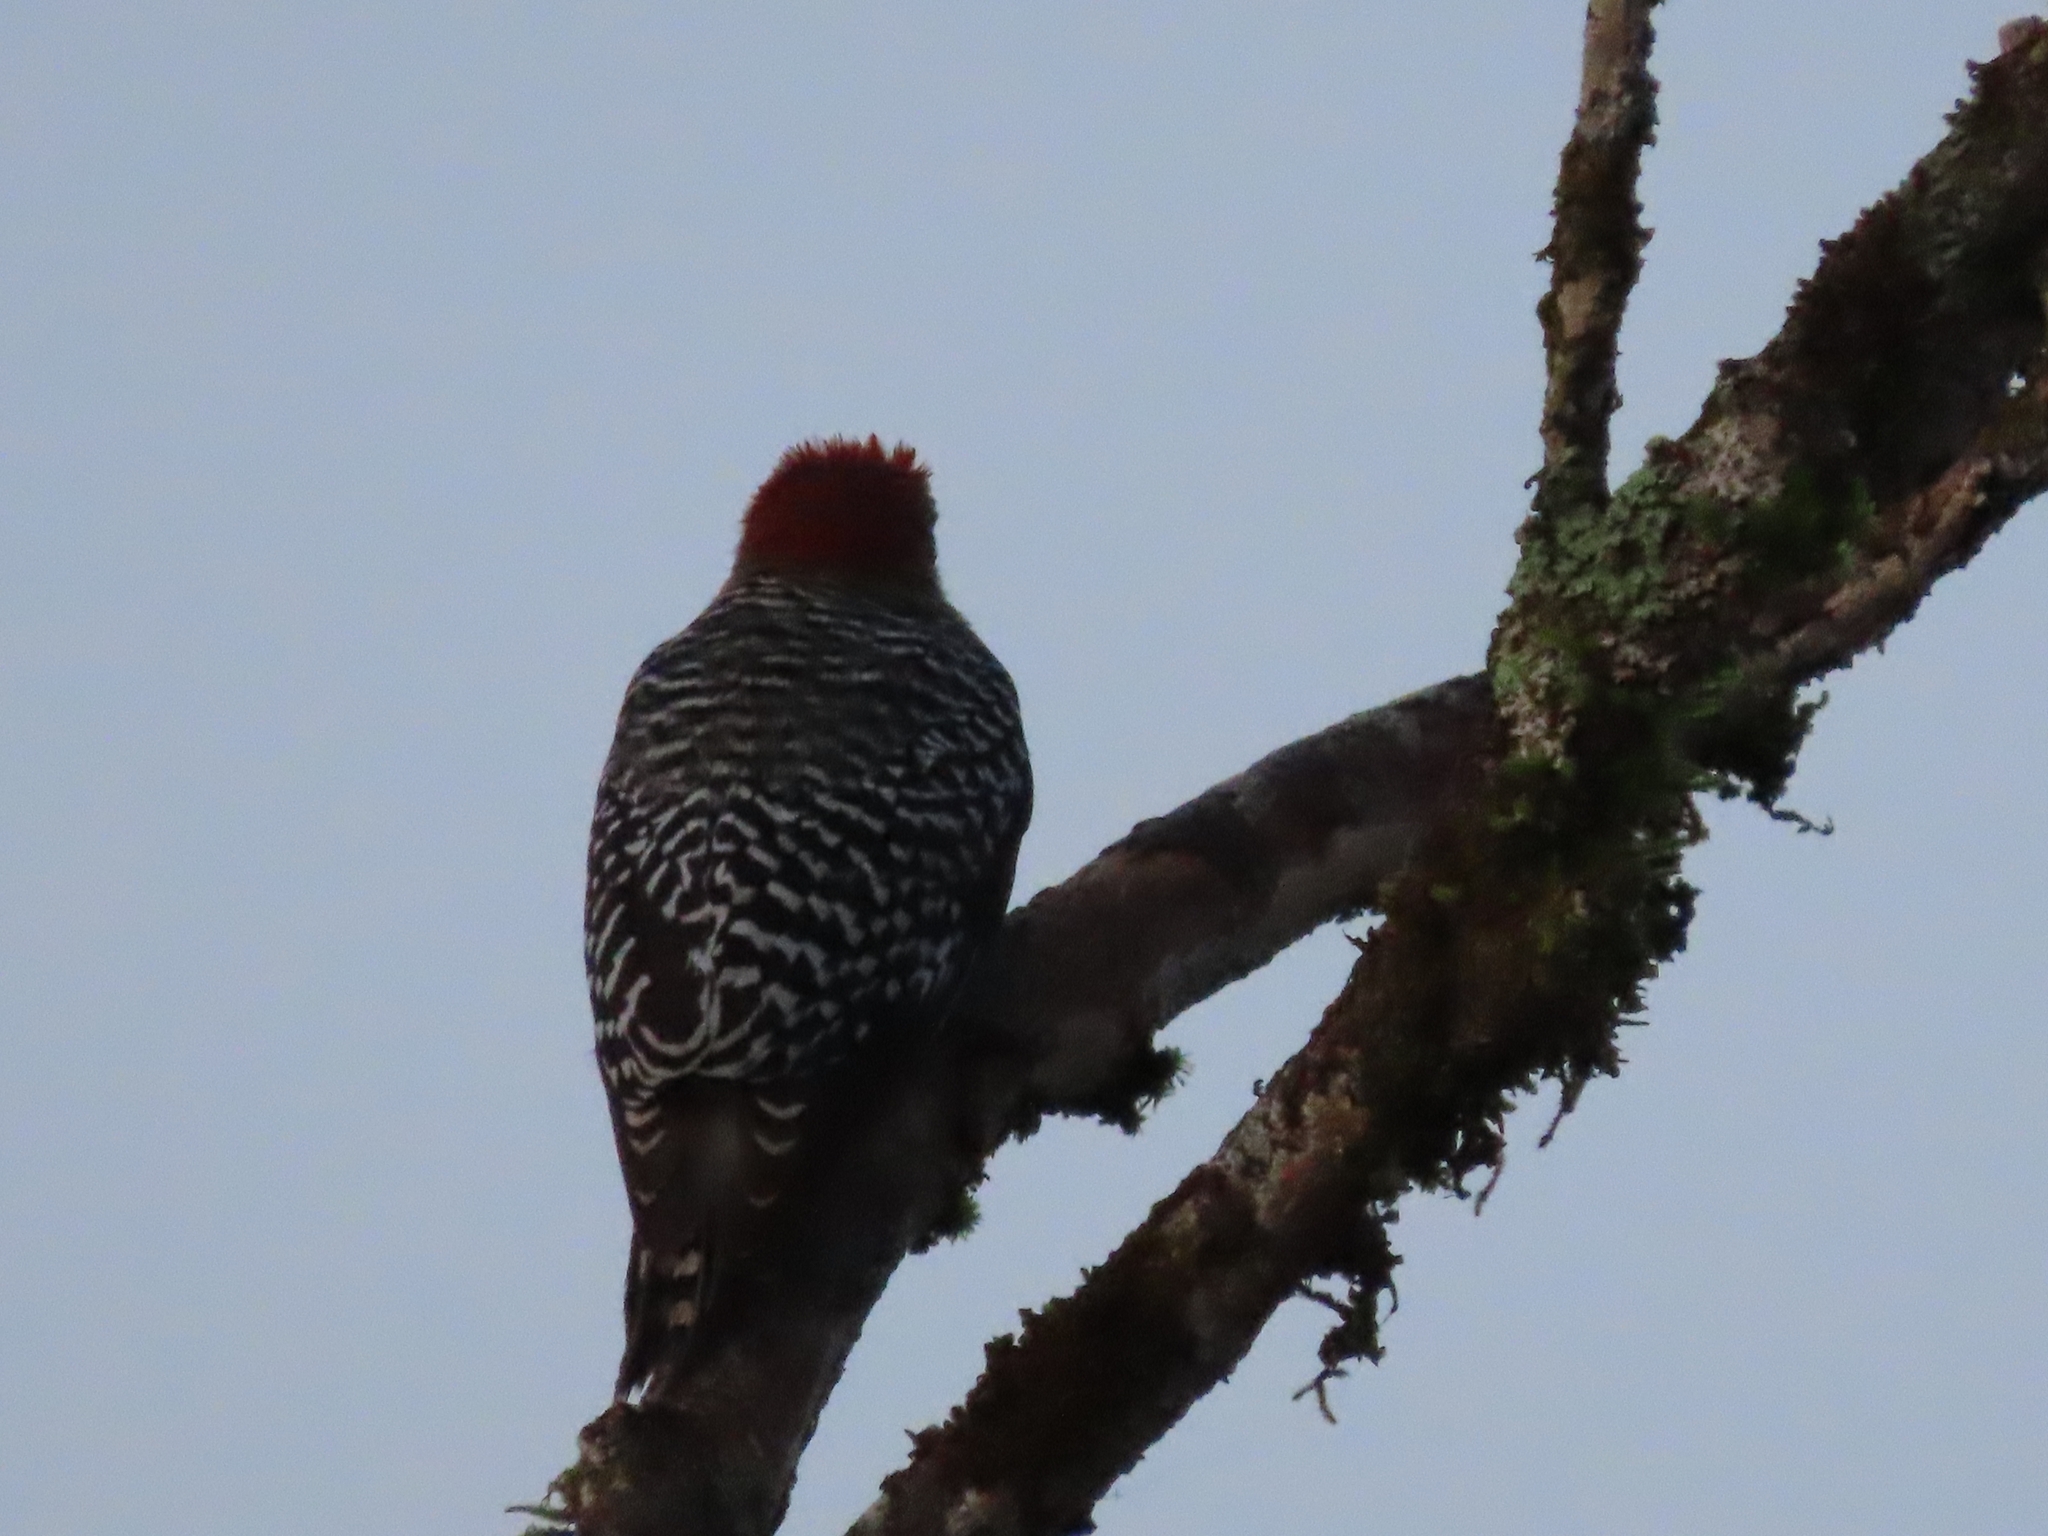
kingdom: Animalia
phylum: Chordata
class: Aves
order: Piciformes
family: Picidae
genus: Melanerpes
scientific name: Melanerpes rubricapillus
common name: Red-crowned woodpecker
